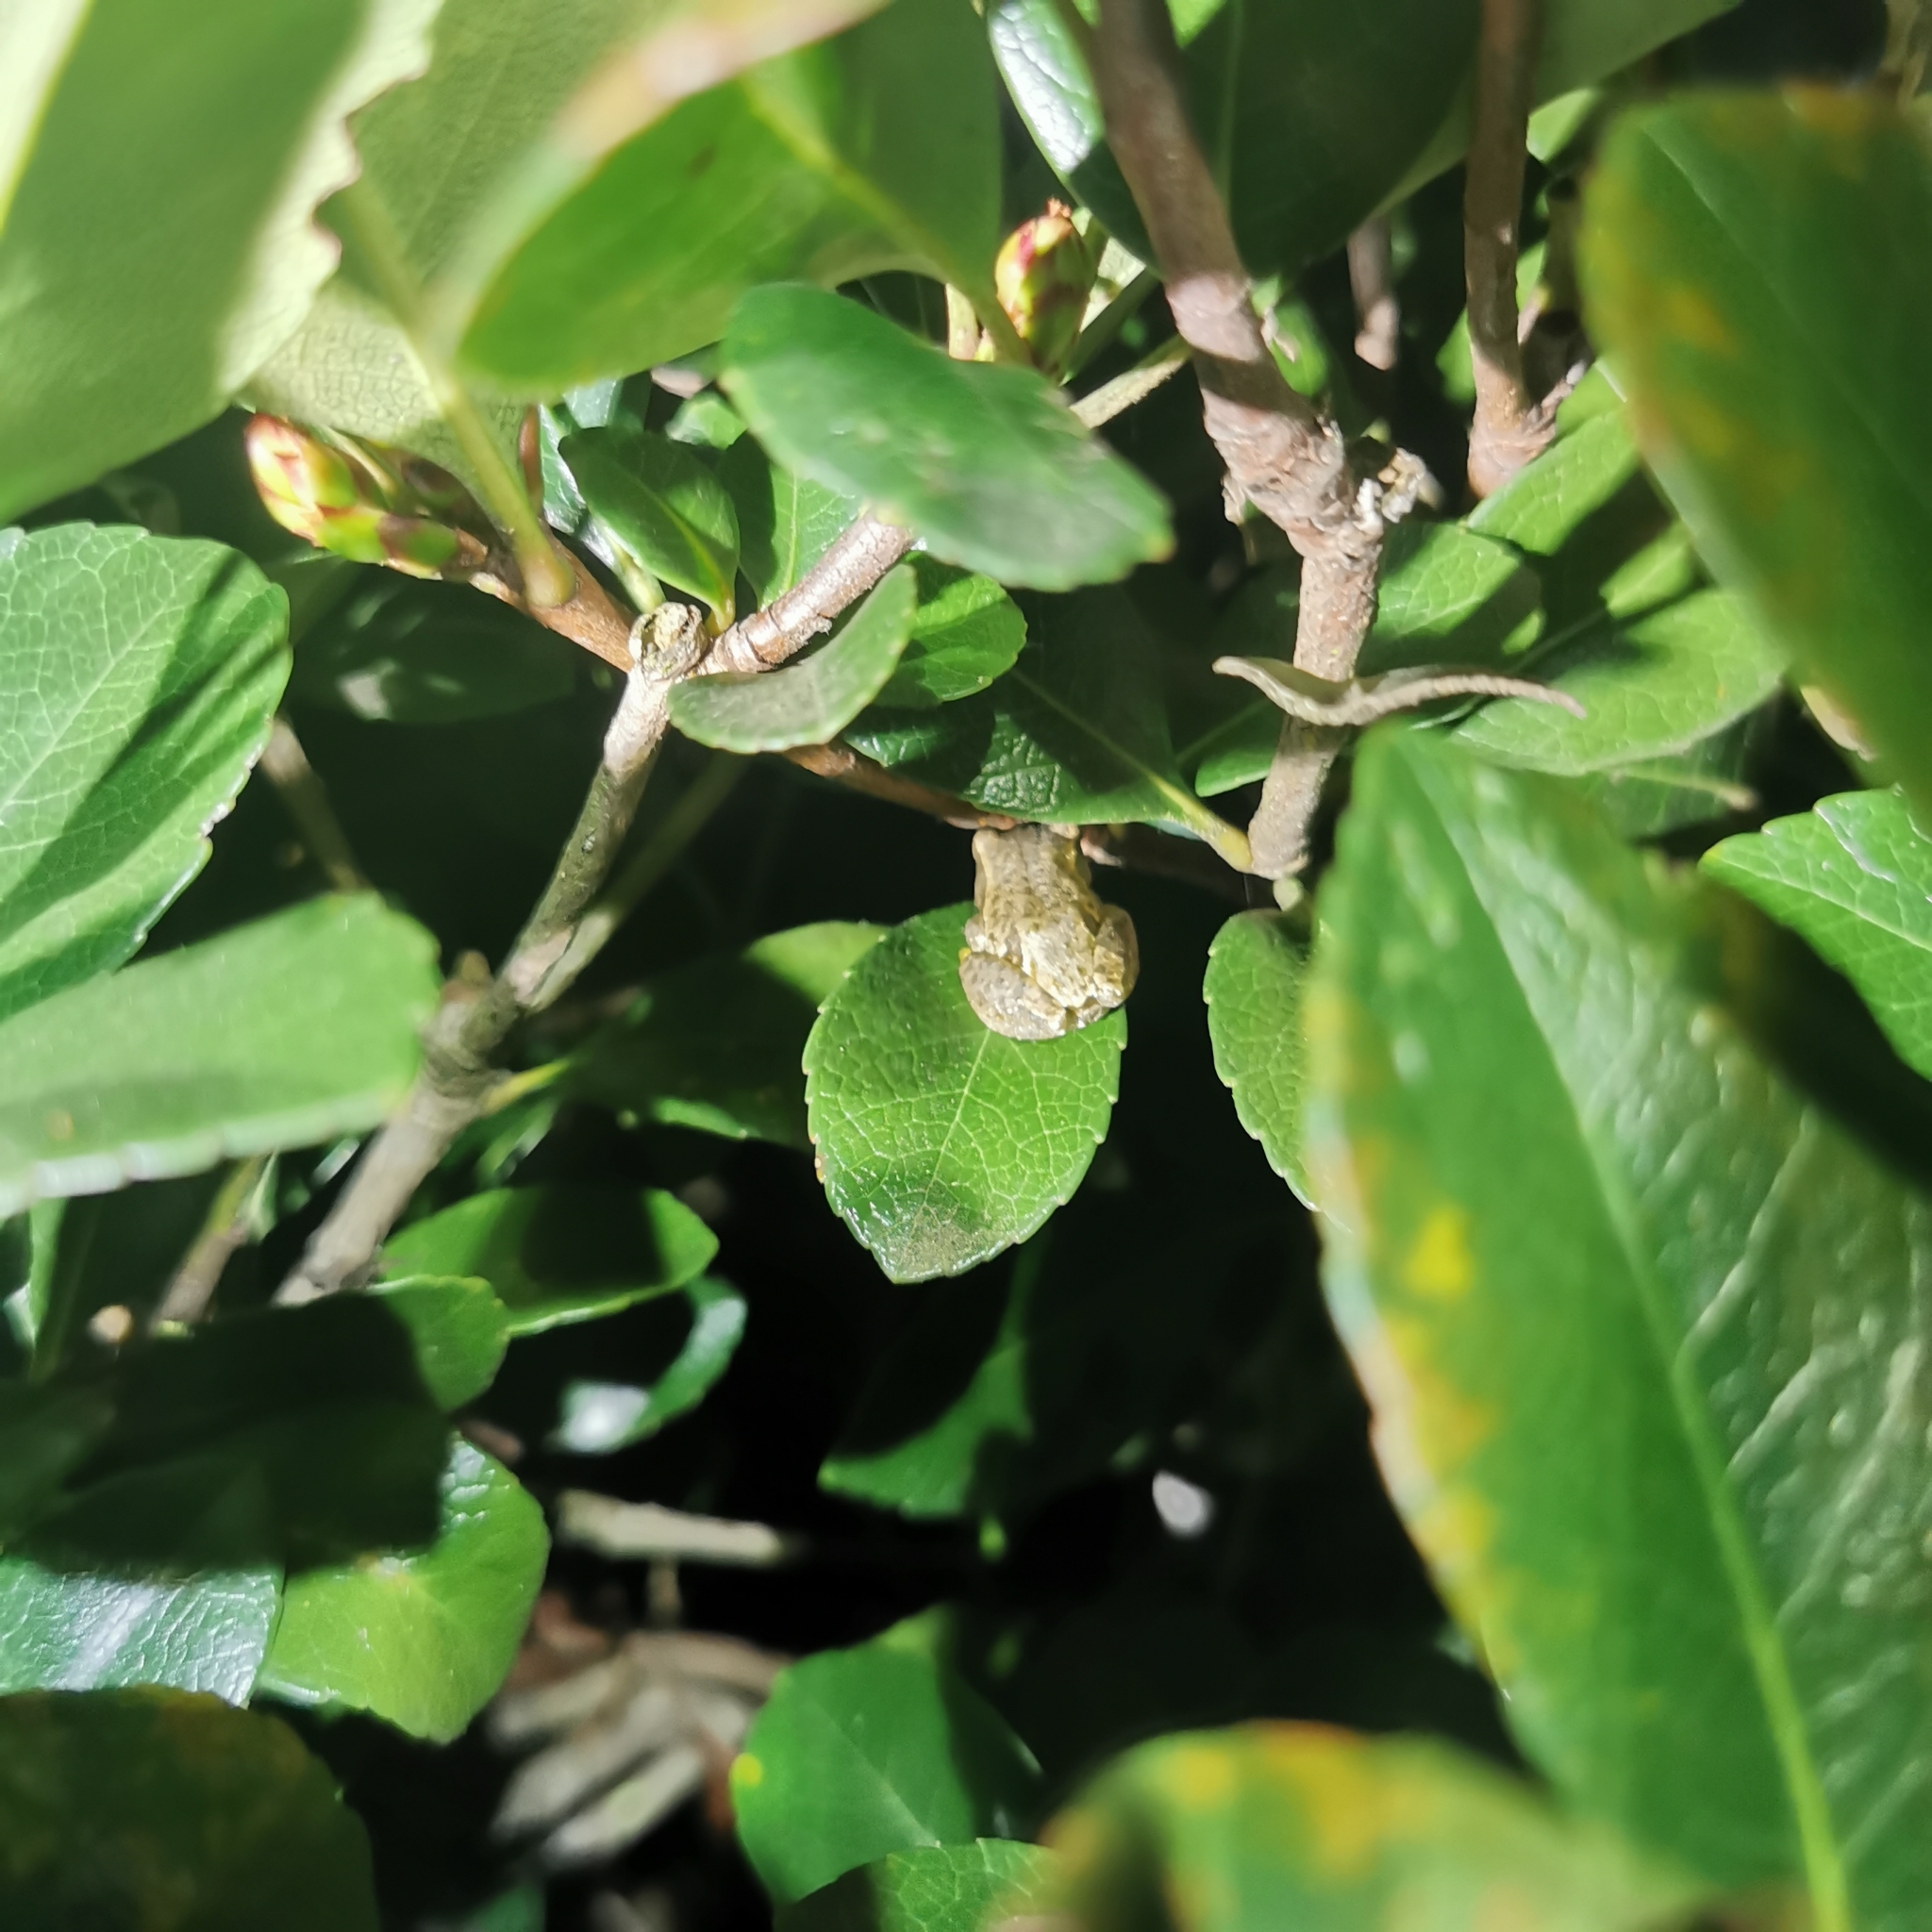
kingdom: Animalia
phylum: Chordata
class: Amphibia
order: Anura
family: Hyperoliidae
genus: Hyperolius
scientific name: Hyperolius marmoratus
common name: Painted reed frog
